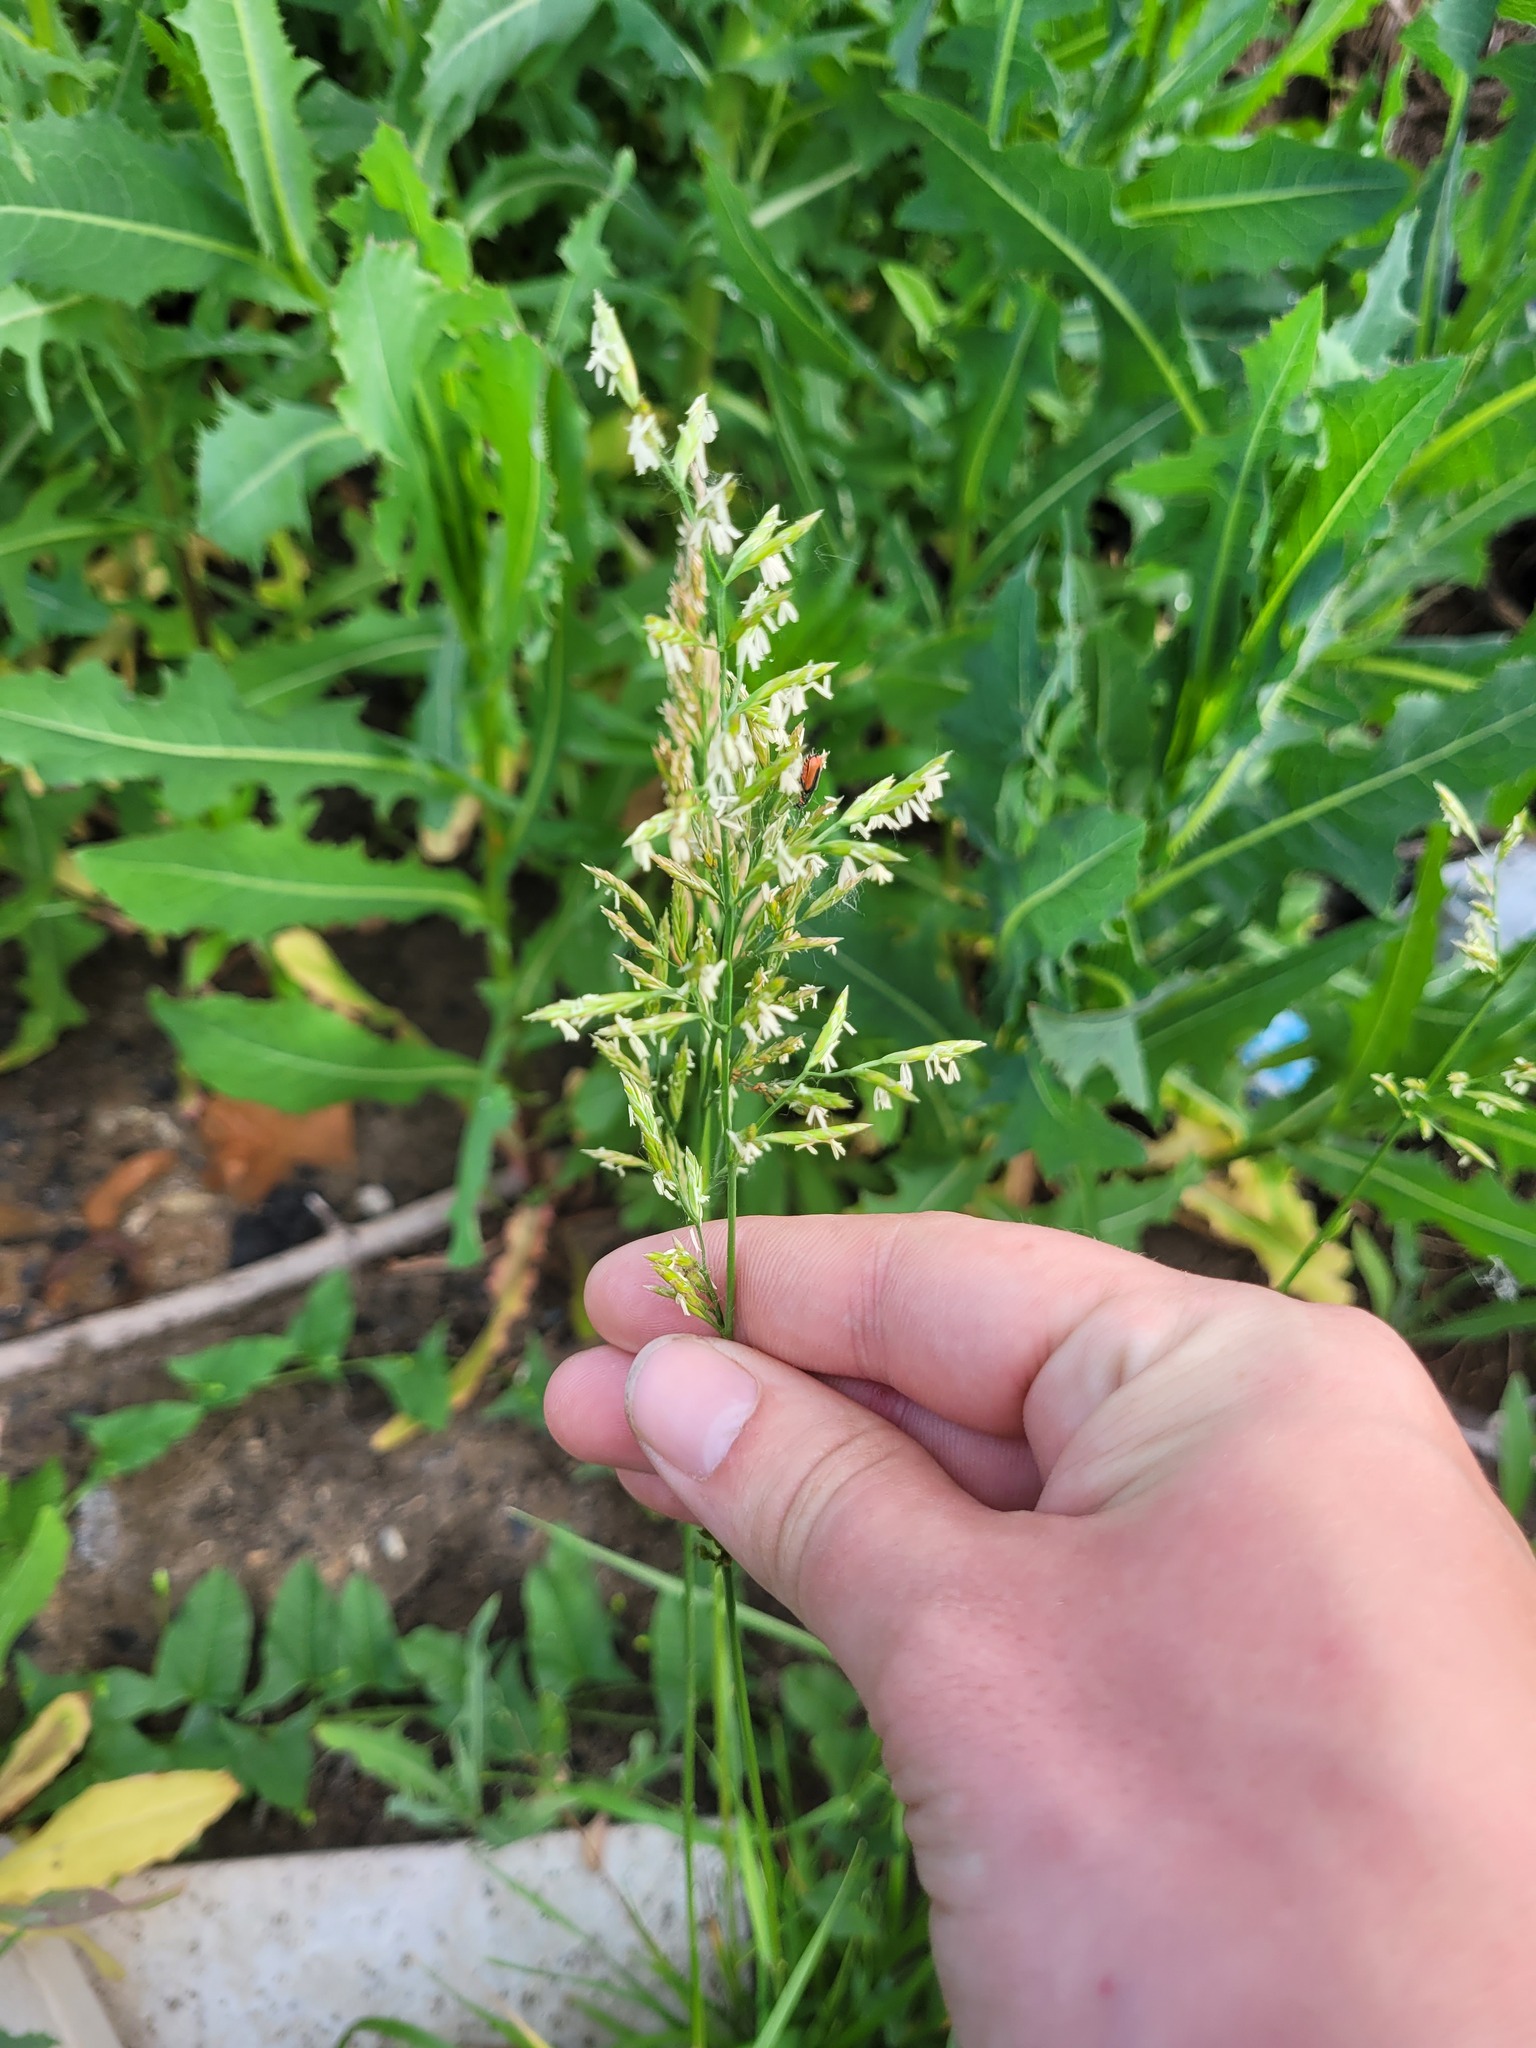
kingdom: Plantae
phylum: Tracheophyta
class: Liliopsida
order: Poales
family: Poaceae
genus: Lolium
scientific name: Lolium pratense
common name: Dover grass
